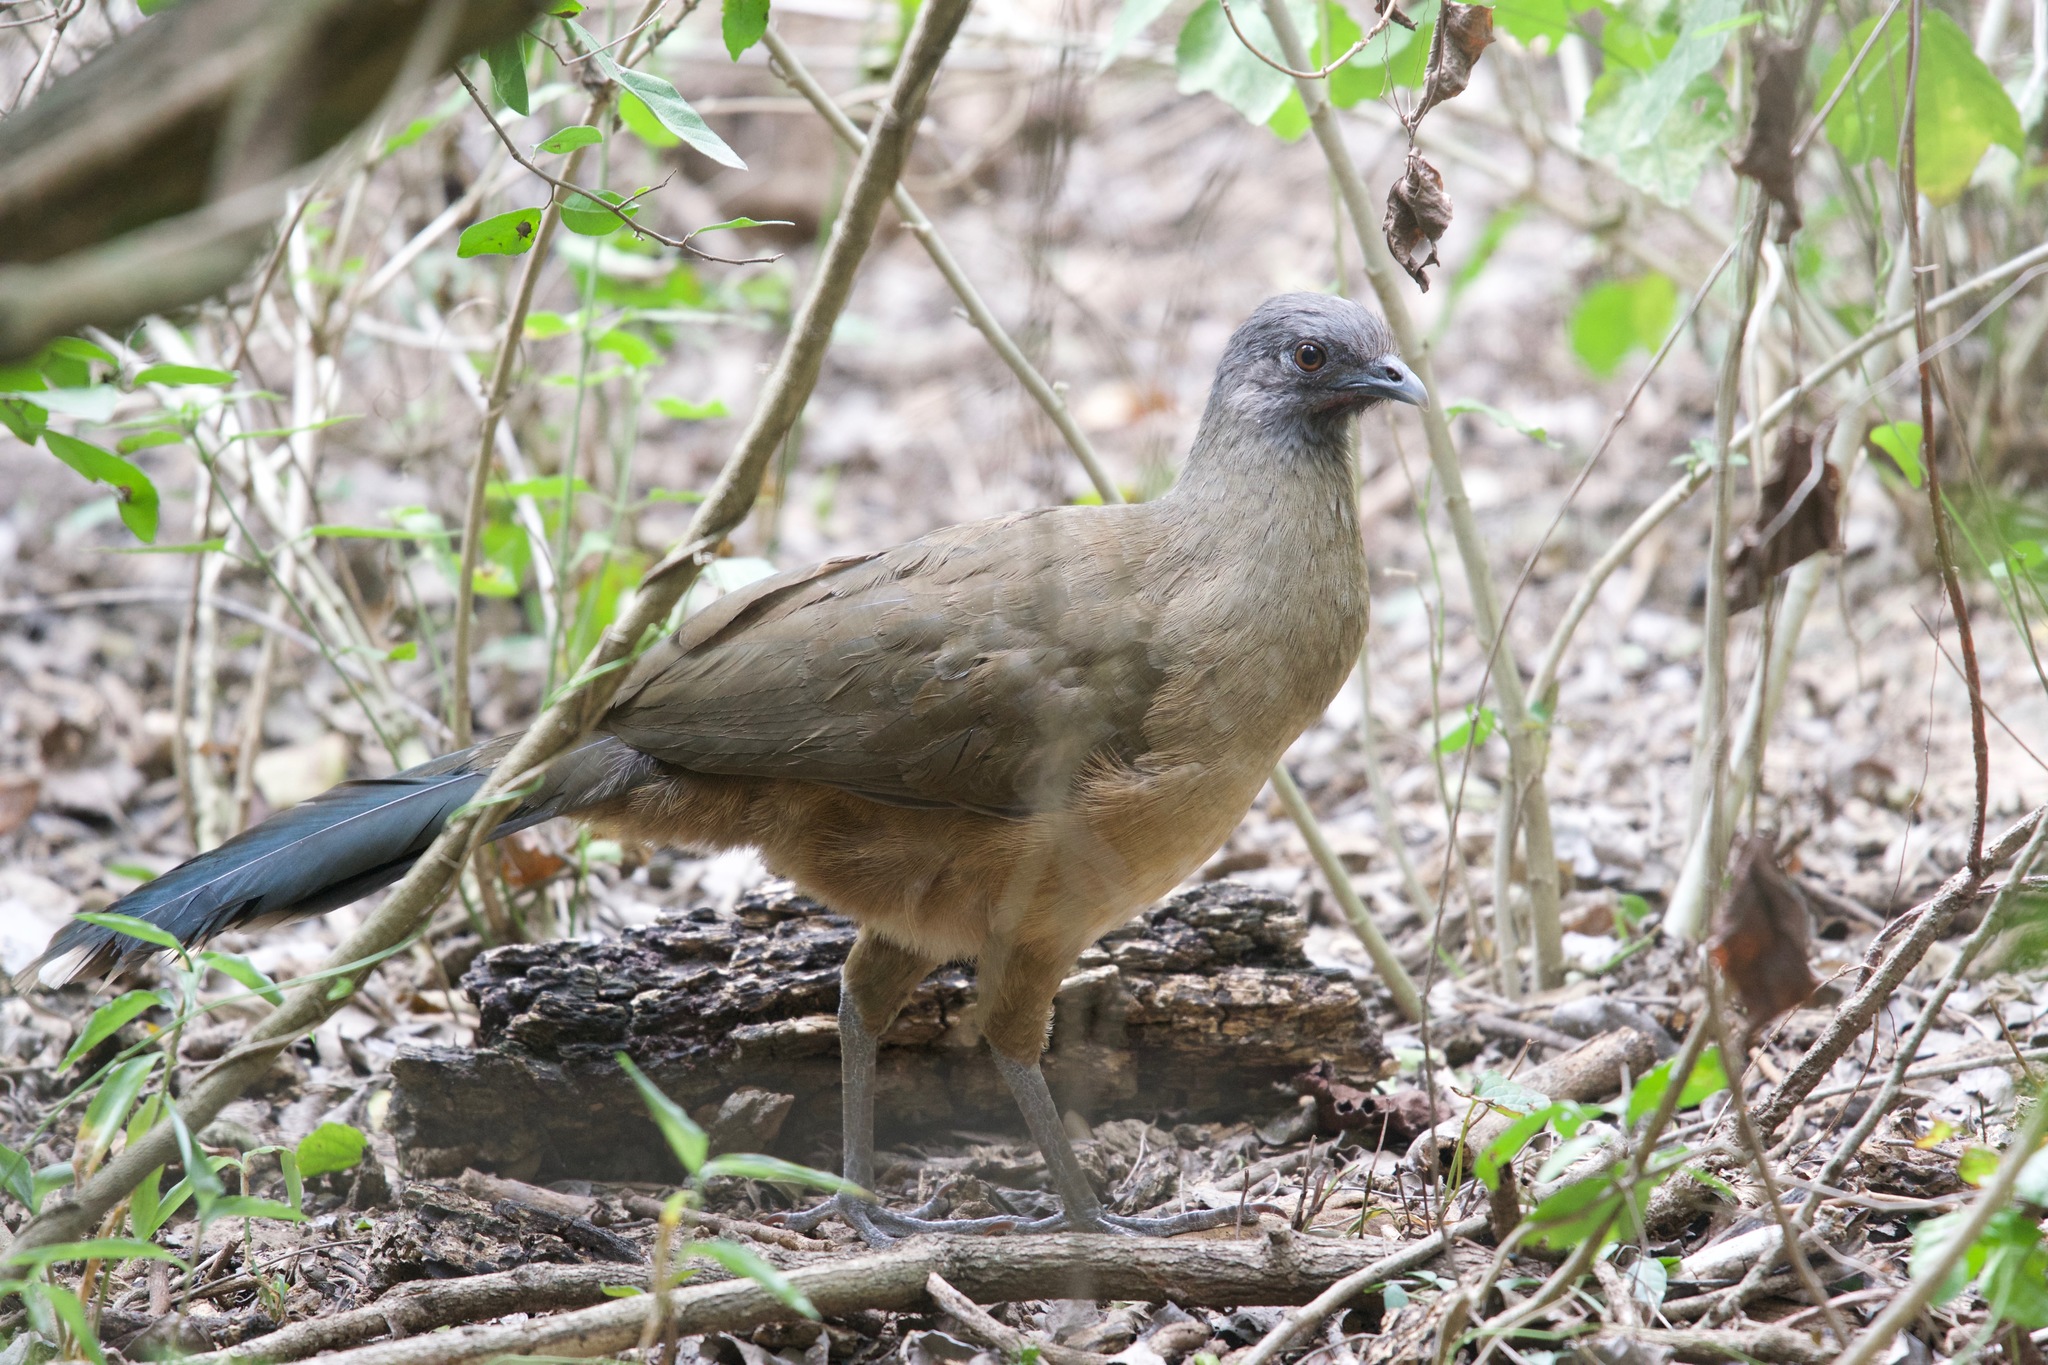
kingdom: Animalia
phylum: Chordata
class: Aves
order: Galliformes
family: Cracidae
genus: Ortalis
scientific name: Ortalis vetula
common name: Plain chachalaca
